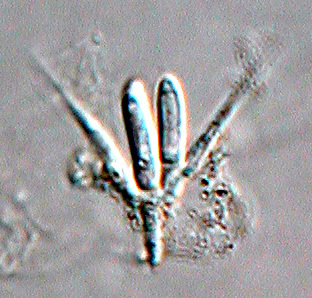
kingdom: Fungi
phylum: Ascomycota
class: Leotiomycetes
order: Helotiales
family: Helotiaceae
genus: Tetracladium
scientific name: Tetracladium maxilliforme
